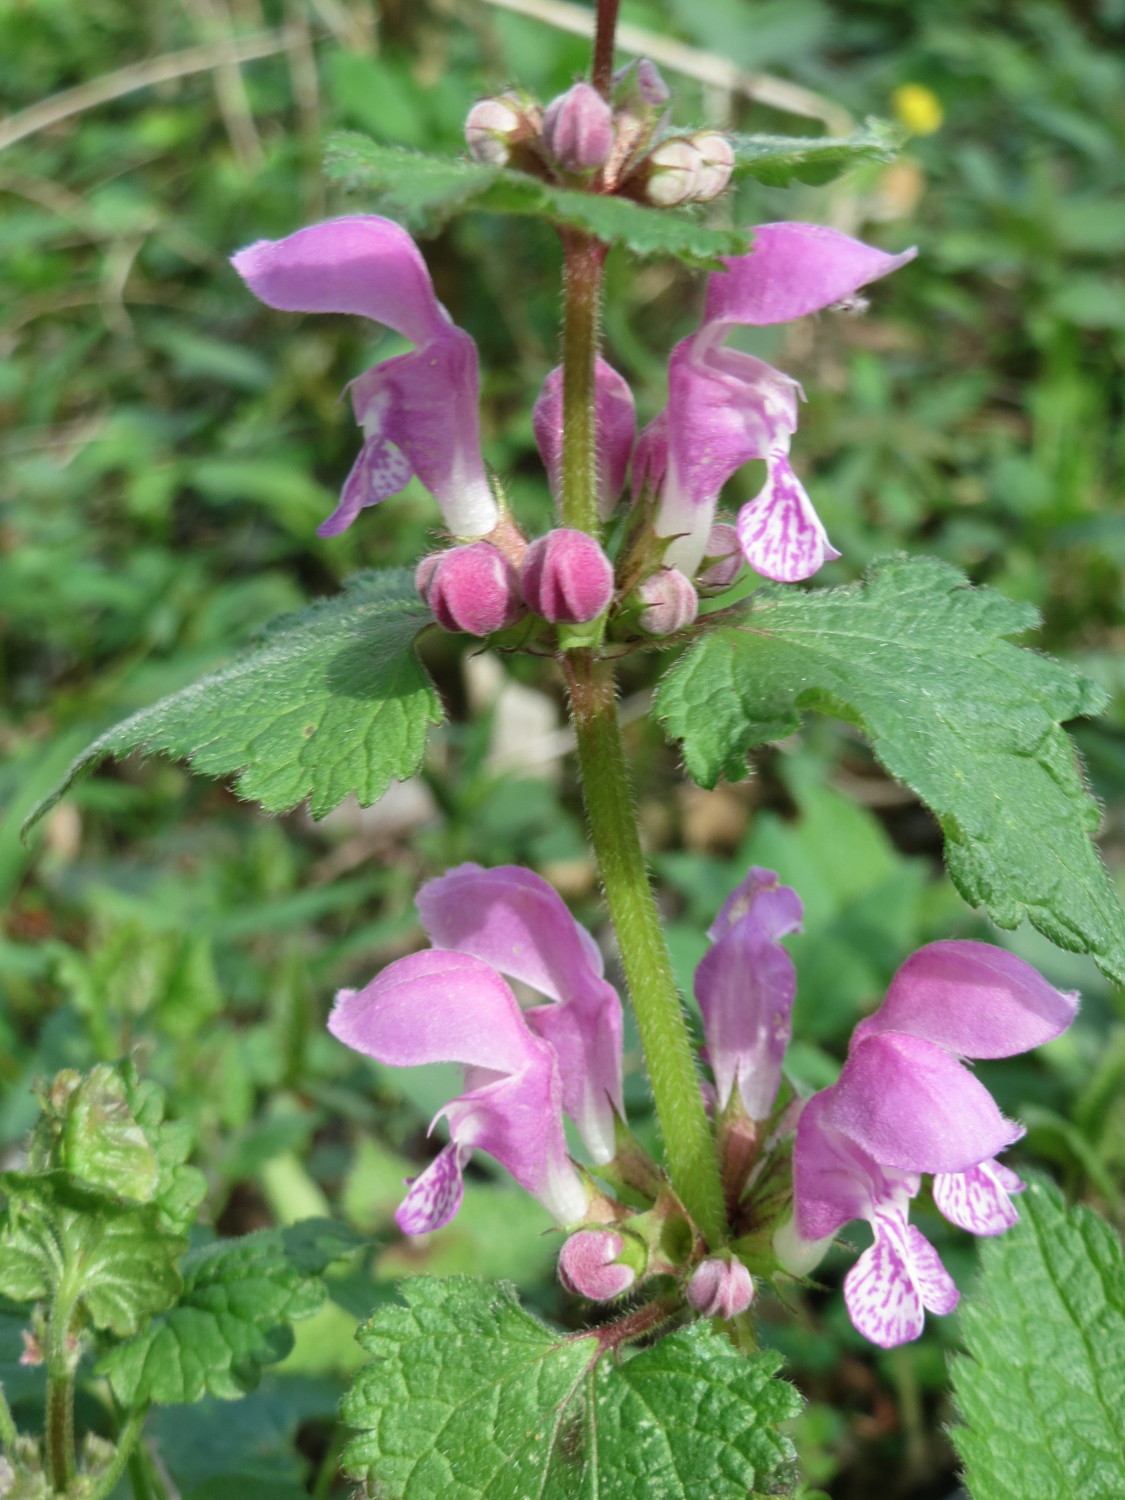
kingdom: Plantae
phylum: Tracheophyta
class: Magnoliopsida
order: Lamiales
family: Lamiaceae
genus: Lamium
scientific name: Lamium maculatum
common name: Spotted dead-nettle
